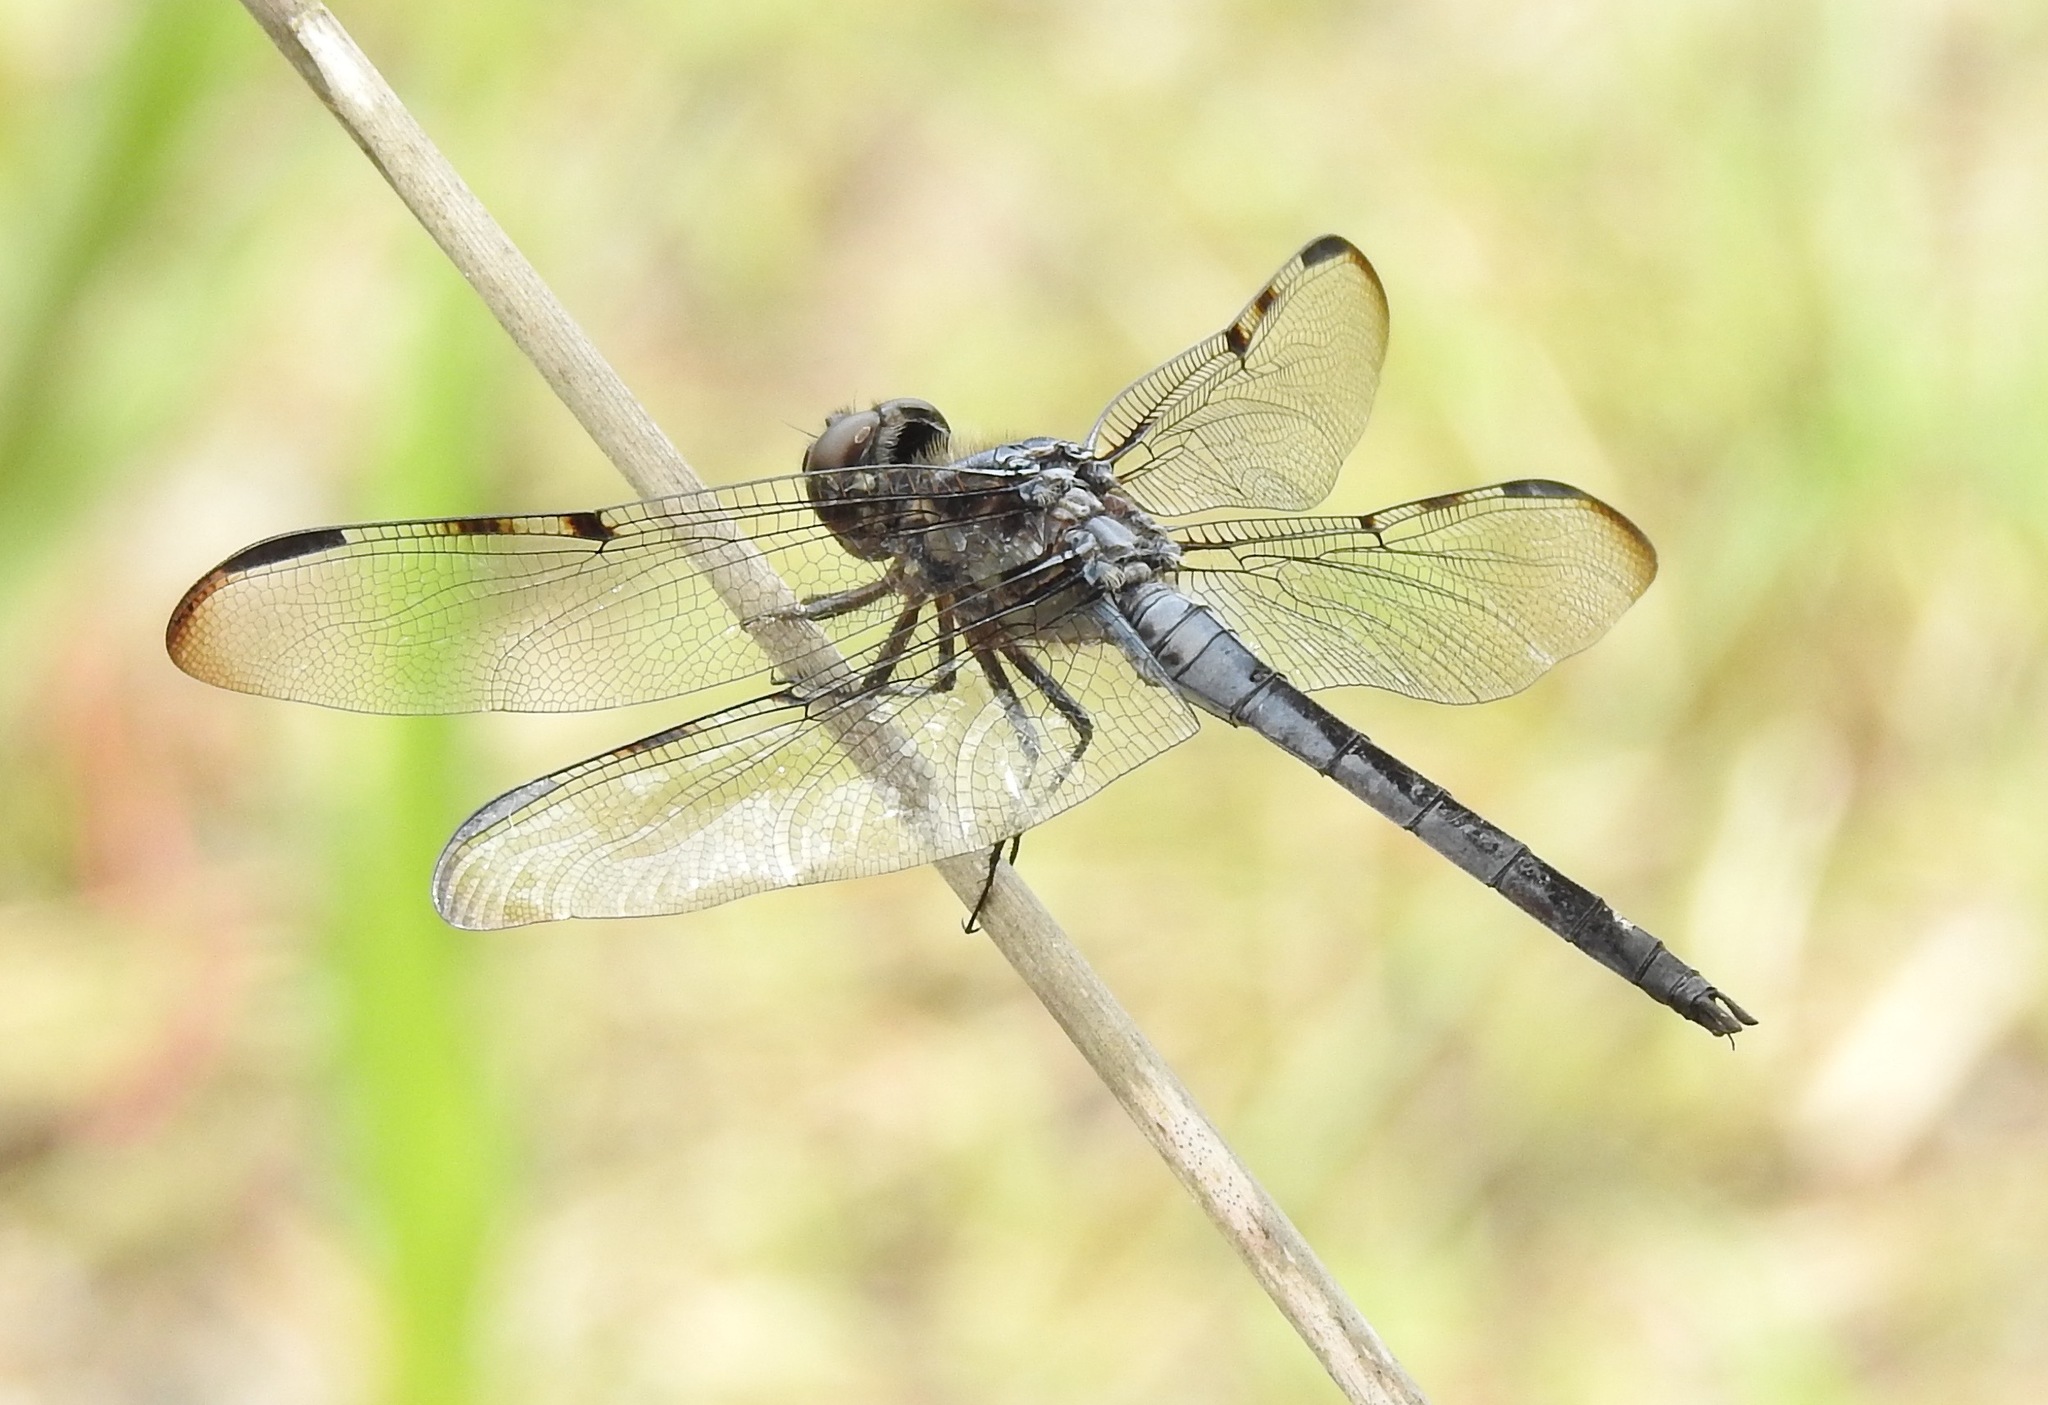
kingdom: Animalia
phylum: Arthropoda
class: Insecta
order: Odonata
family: Libellulidae
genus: Libellula
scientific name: Libellula axilena
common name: Bar-winged skimmer
